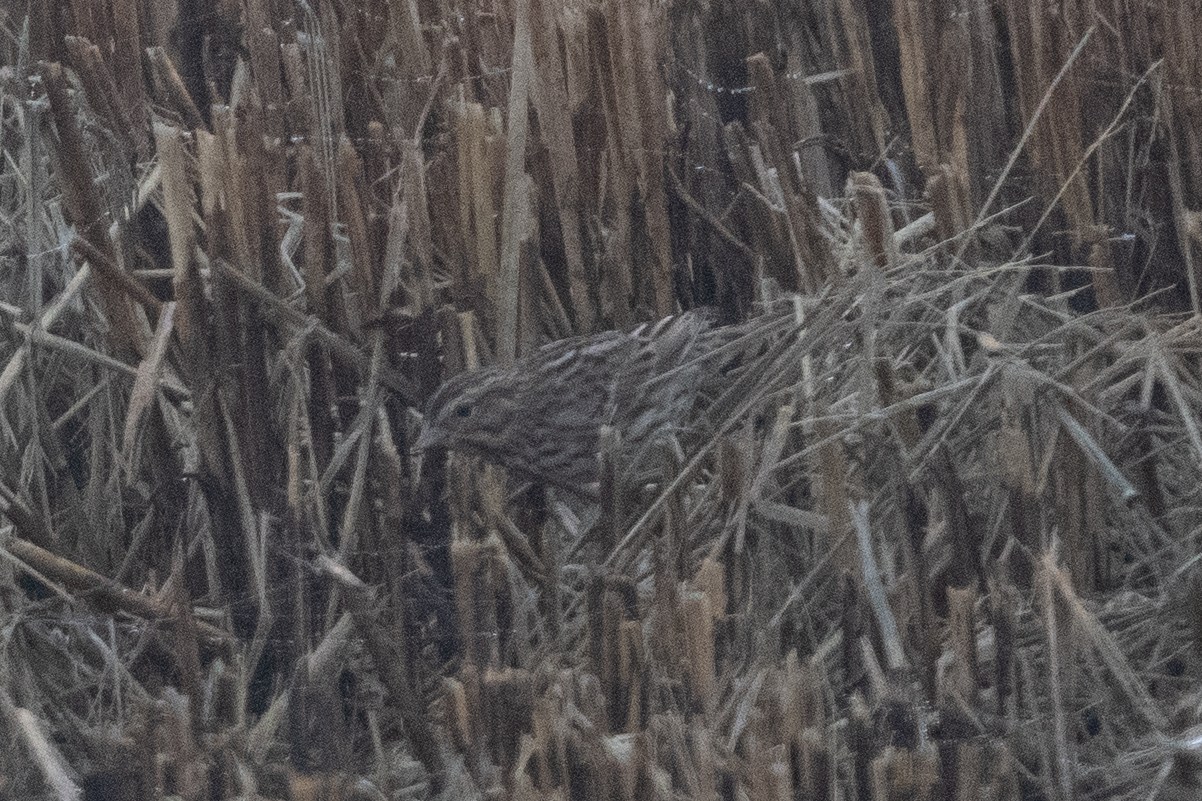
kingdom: Animalia
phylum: Chordata
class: Aves
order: Passeriformes
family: Passerellidae
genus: Melospiza
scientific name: Melospiza melodia
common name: Song sparrow
